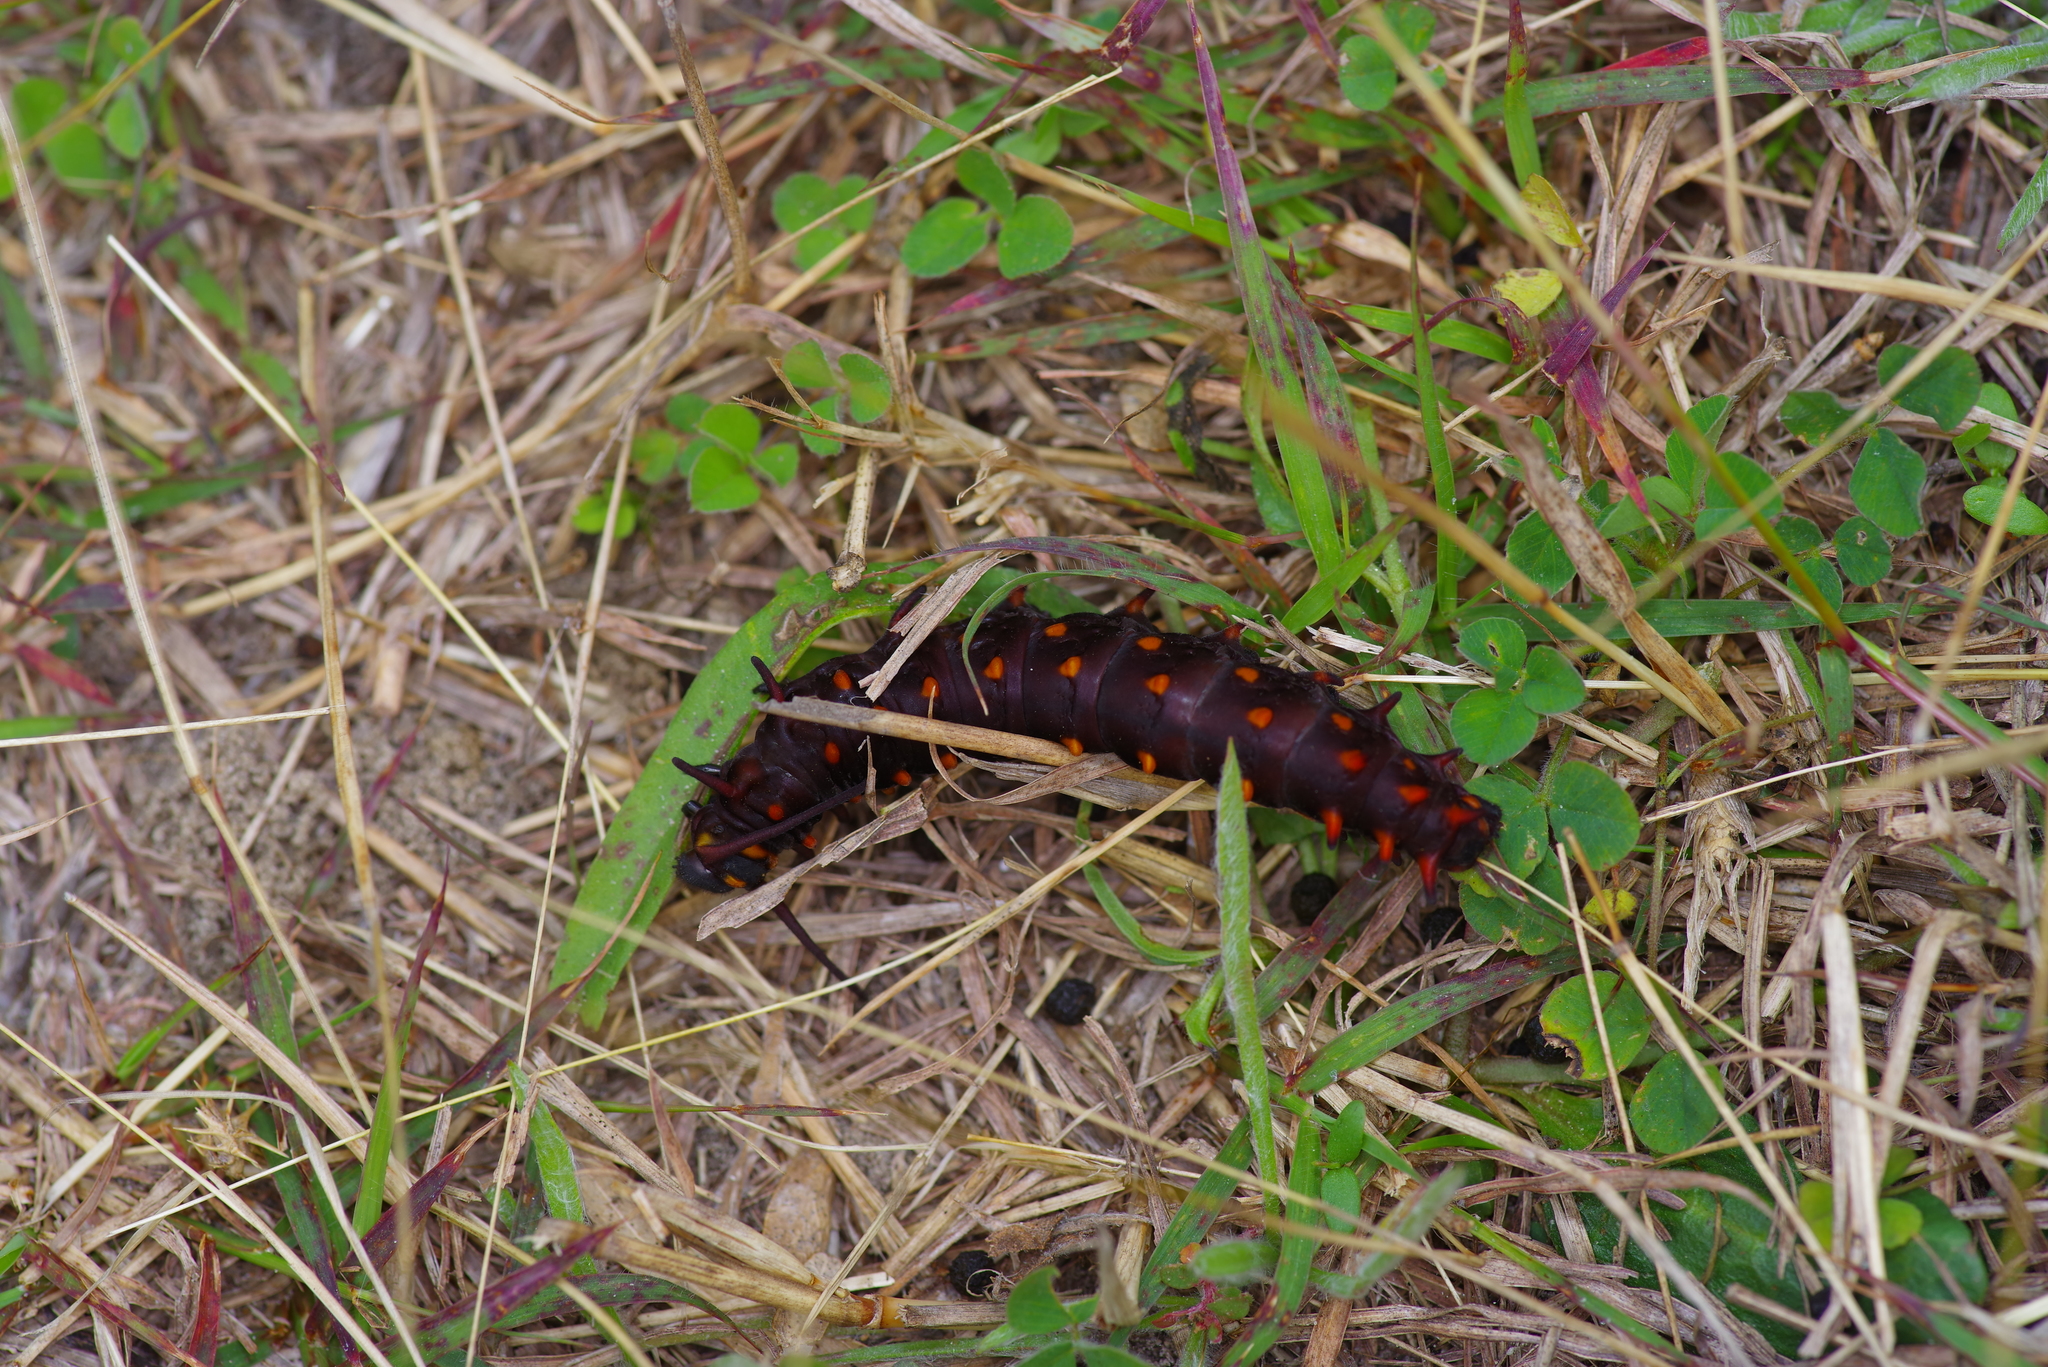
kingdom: Animalia
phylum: Arthropoda
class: Insecta
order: Lepidoptera
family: Papilionidae
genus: Battus
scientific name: Battus philenor
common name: Pipevine swallowtail
